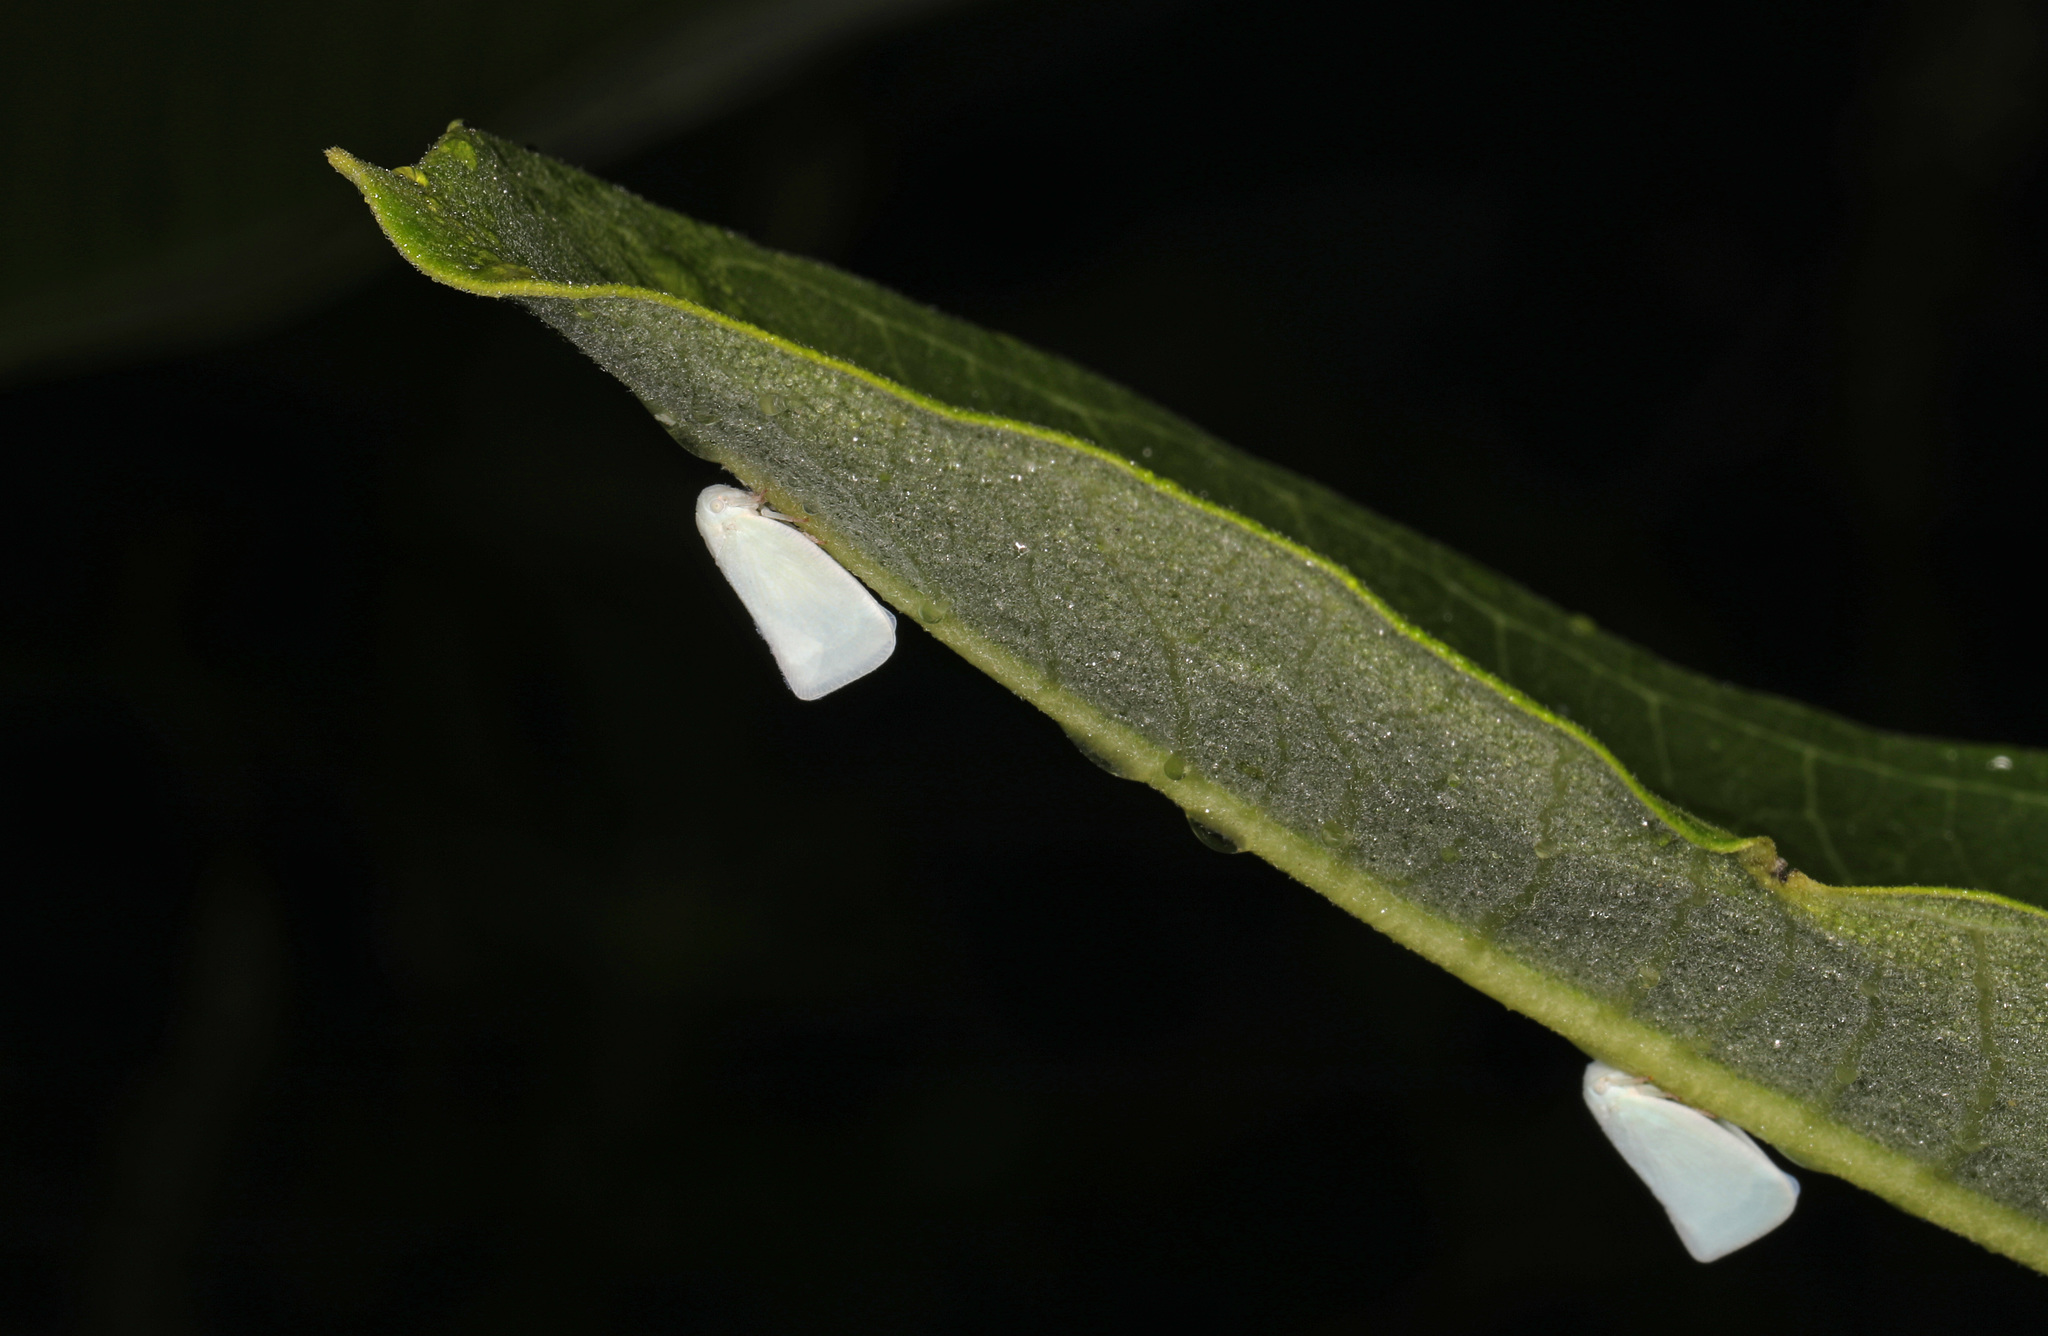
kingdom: Animalia
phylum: Arthropoda
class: Insecta
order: Hemiptera
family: Flatidae
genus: Flatormenis
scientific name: Flatormenis proxima
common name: Northern flatid planthopper
